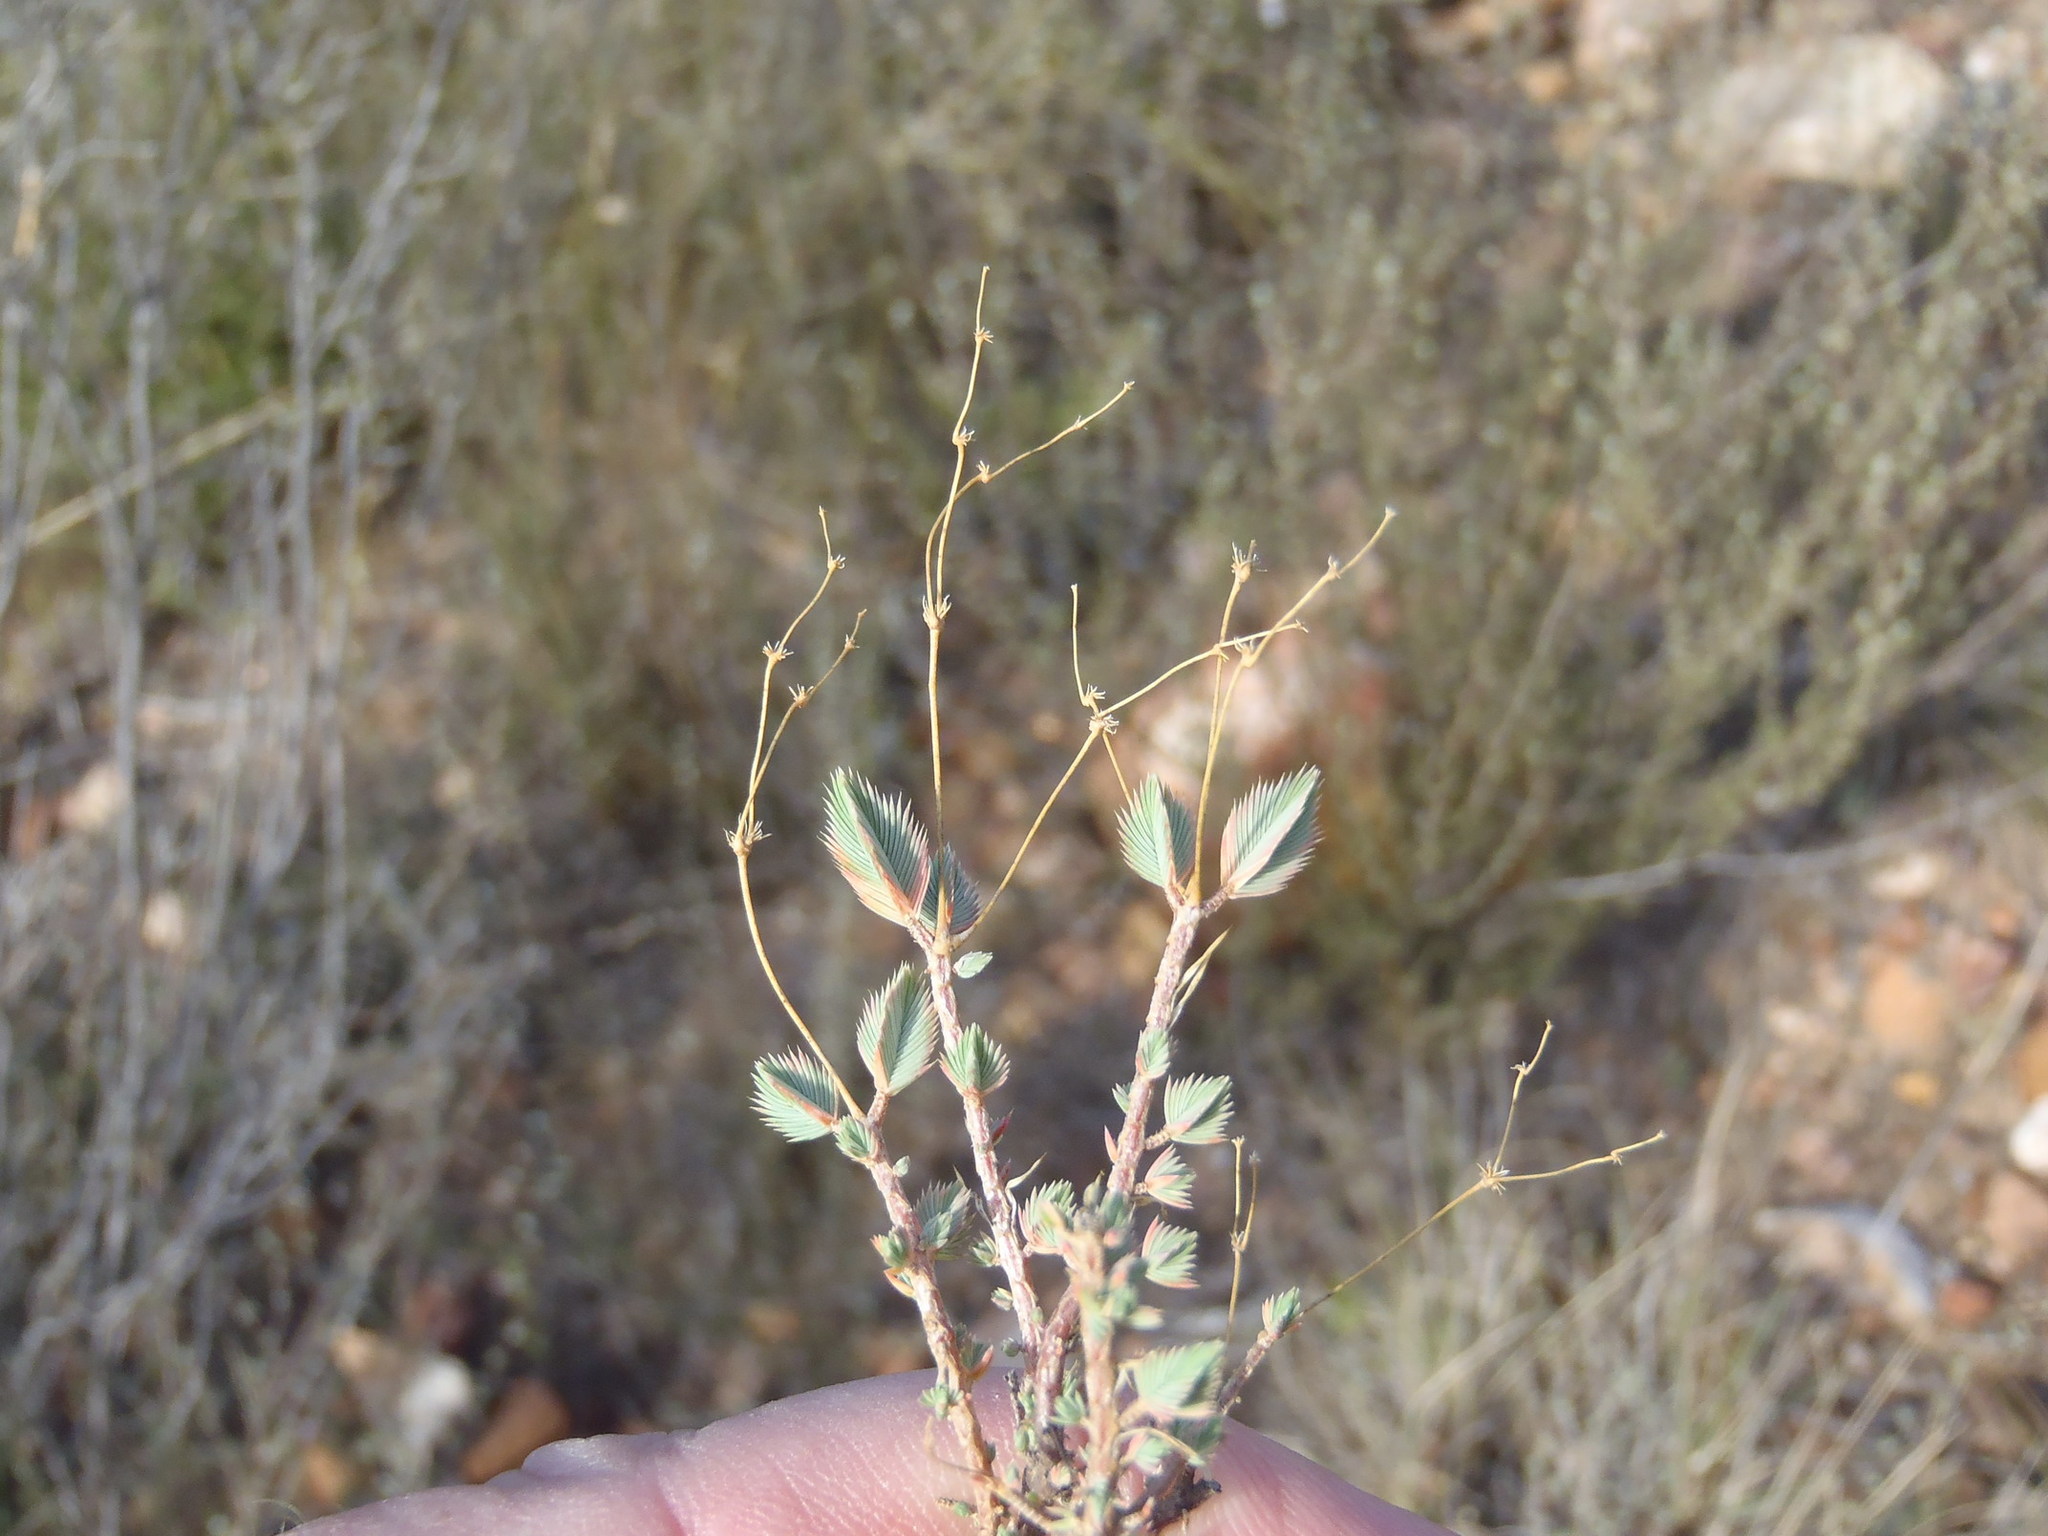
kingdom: Plantae
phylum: Tracheophyta
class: Magnoliopsida
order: Caryophyllales
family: Molluginaceae
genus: Psammotropha
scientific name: Psammotropha quadrangularis
